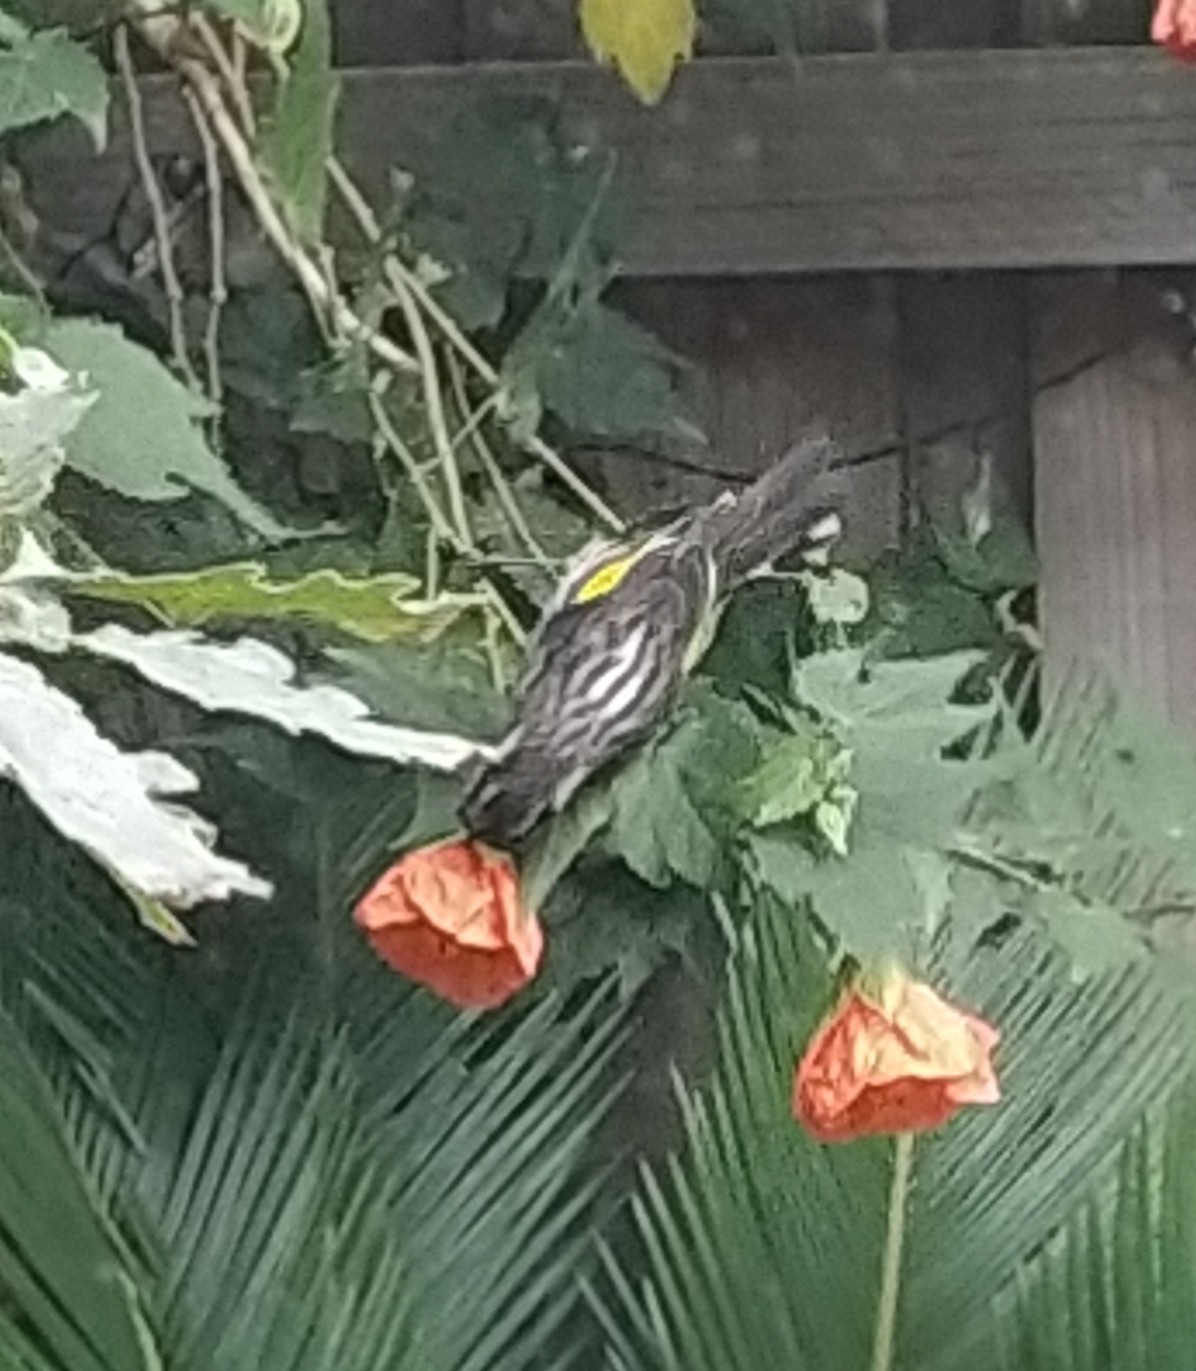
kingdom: Animalia
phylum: Chordata
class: Aves
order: Passeriformes
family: Meliphagidae
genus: Phylidonyris
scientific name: Phylidonyris novaehollandiae
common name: New holland honeyeater
